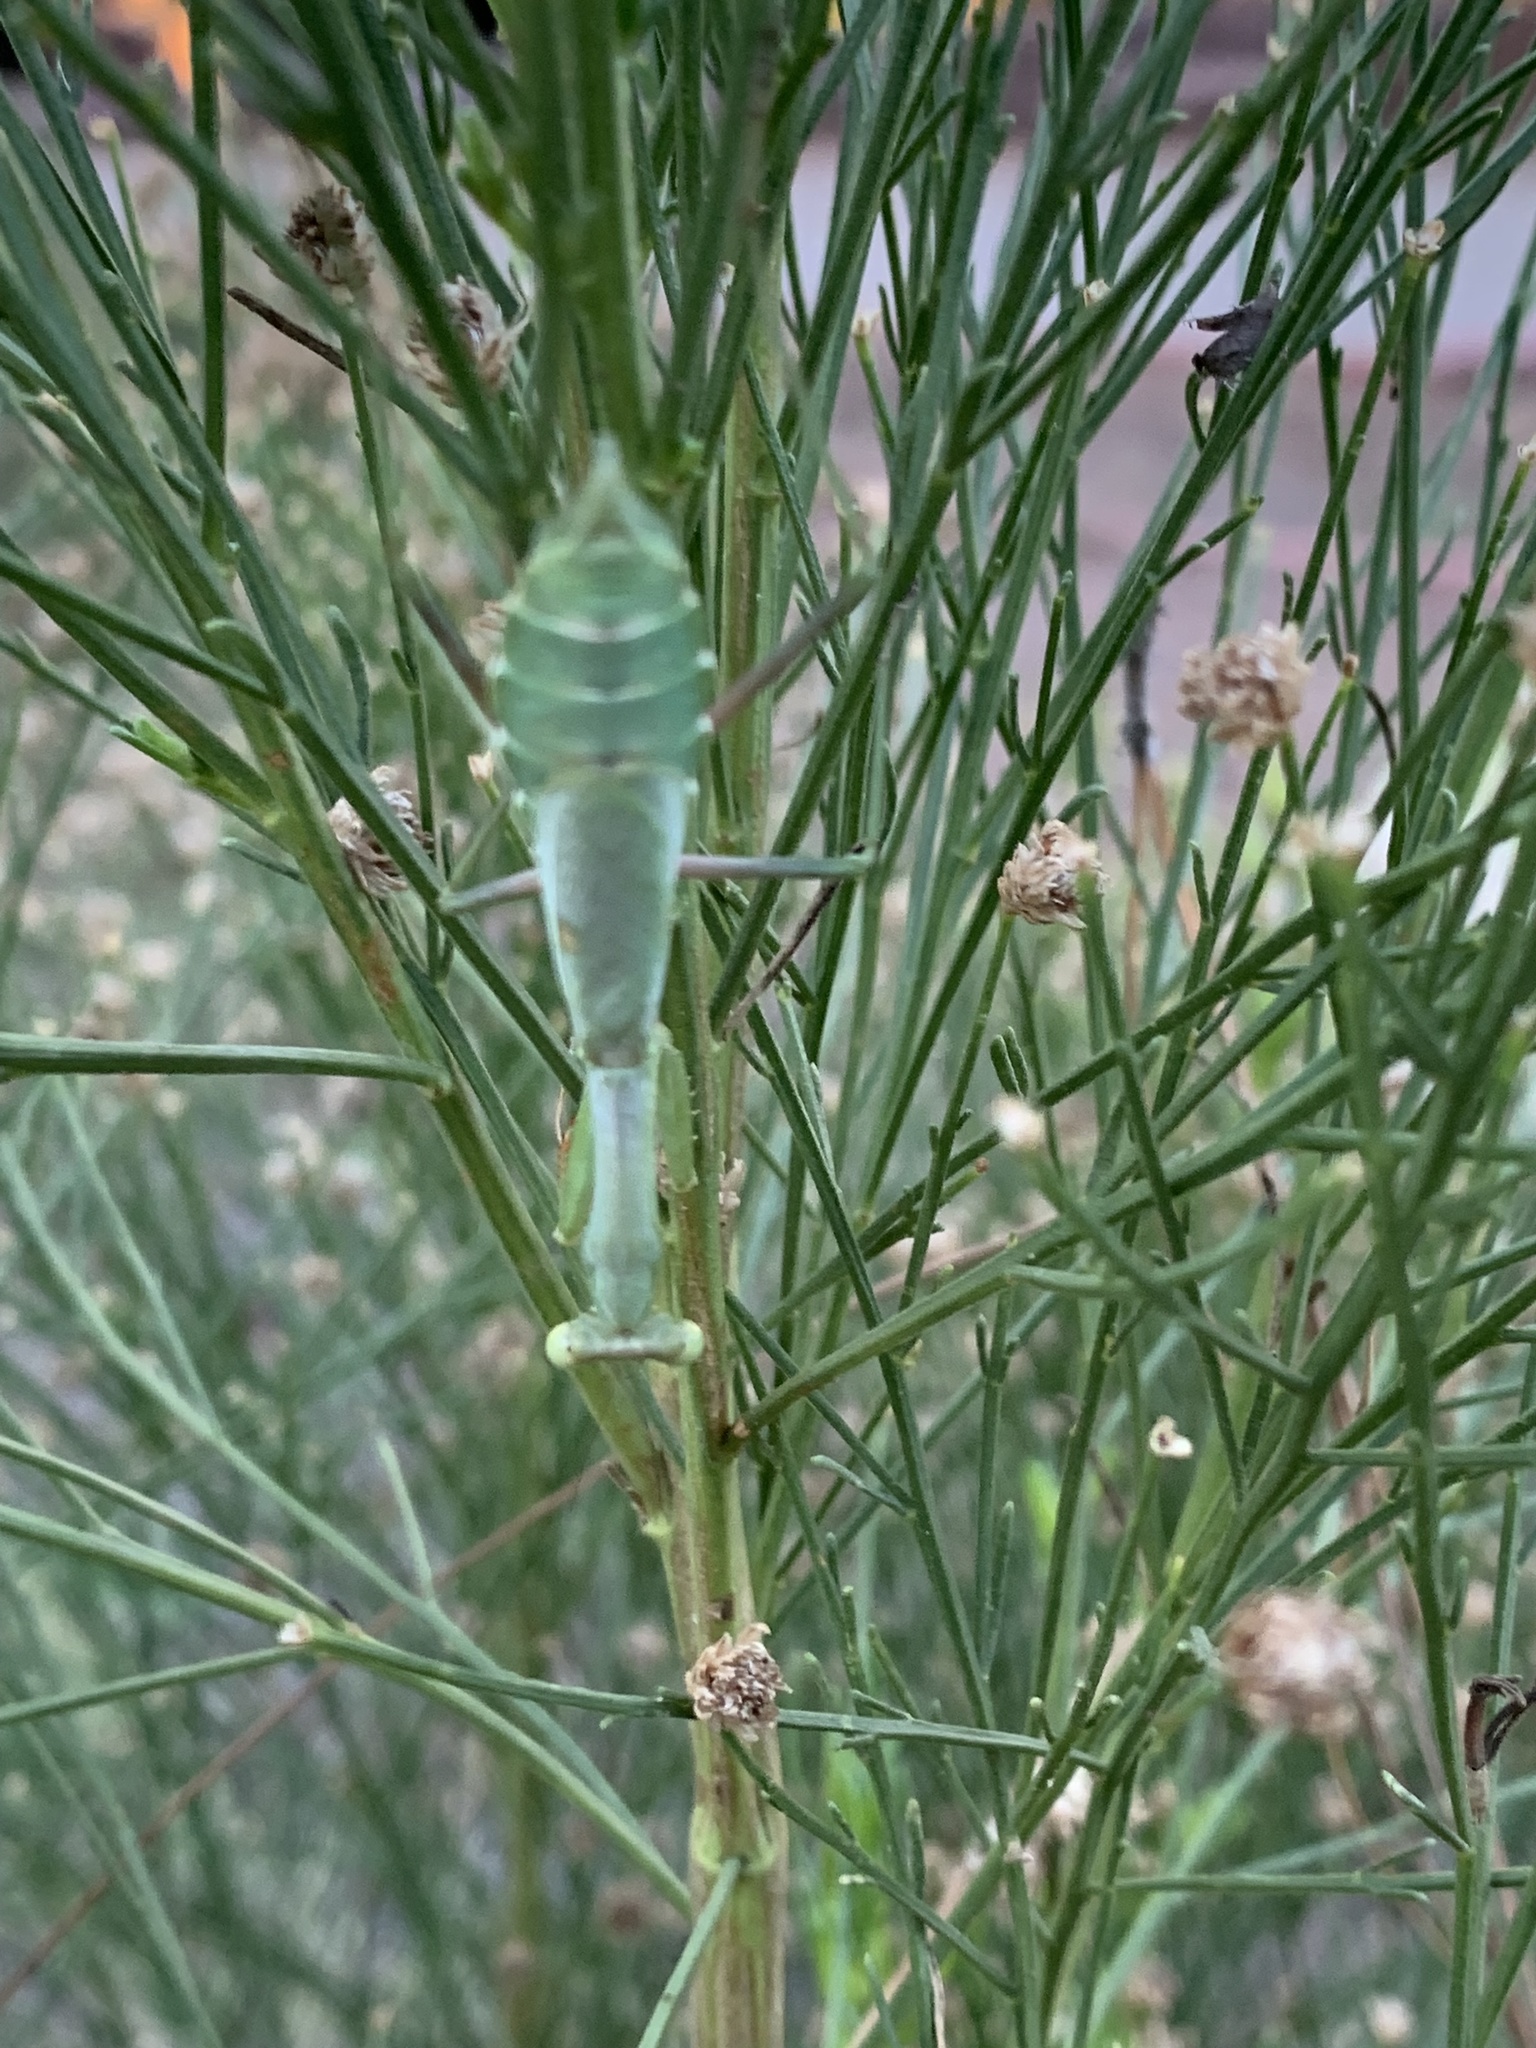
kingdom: Animalia
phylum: Arthropoda
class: Insecta
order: Mantodea
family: Mantidae
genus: Stagmomantis
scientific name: Stagmomantis californica
